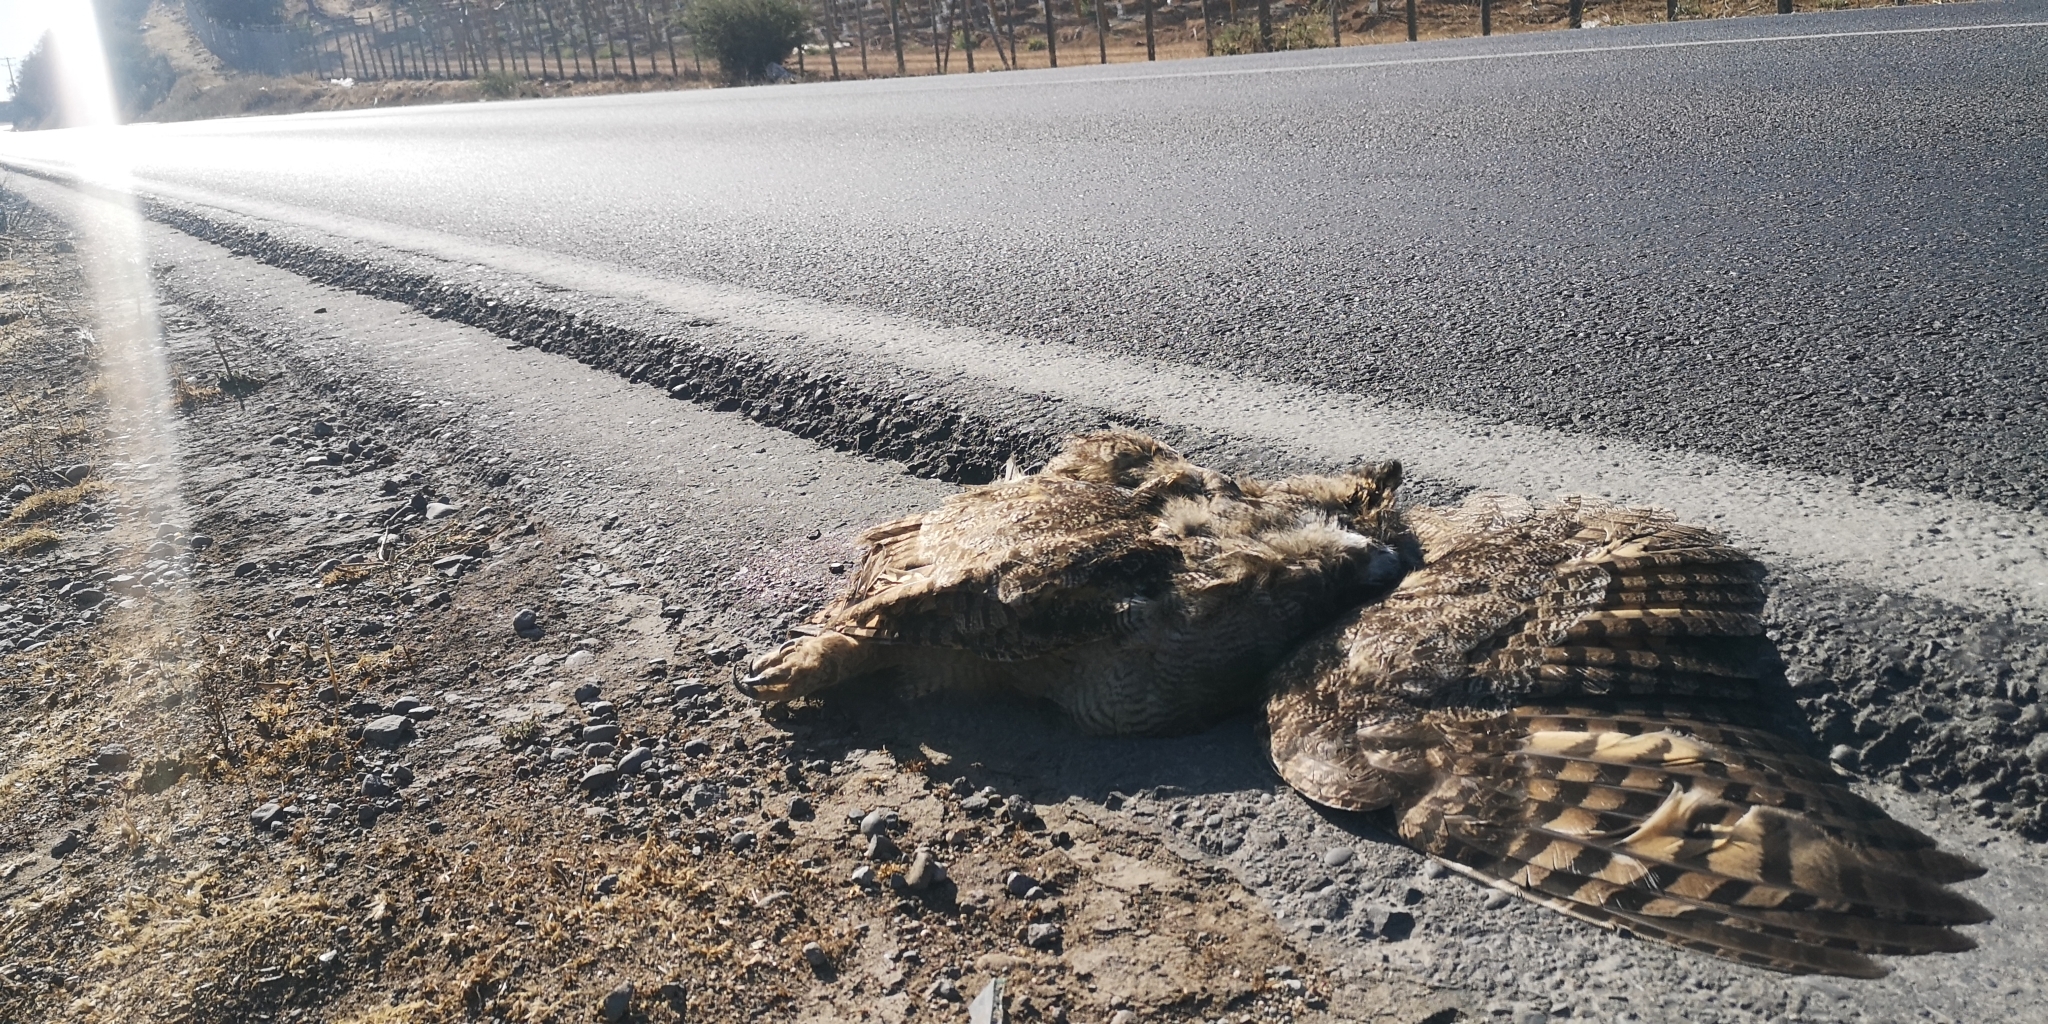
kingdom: Animalia
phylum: Chordata
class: Aves
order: Strigiformes
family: Strigidae
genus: Bubo
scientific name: Bubo magellanicus
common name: Lesser horned owl
